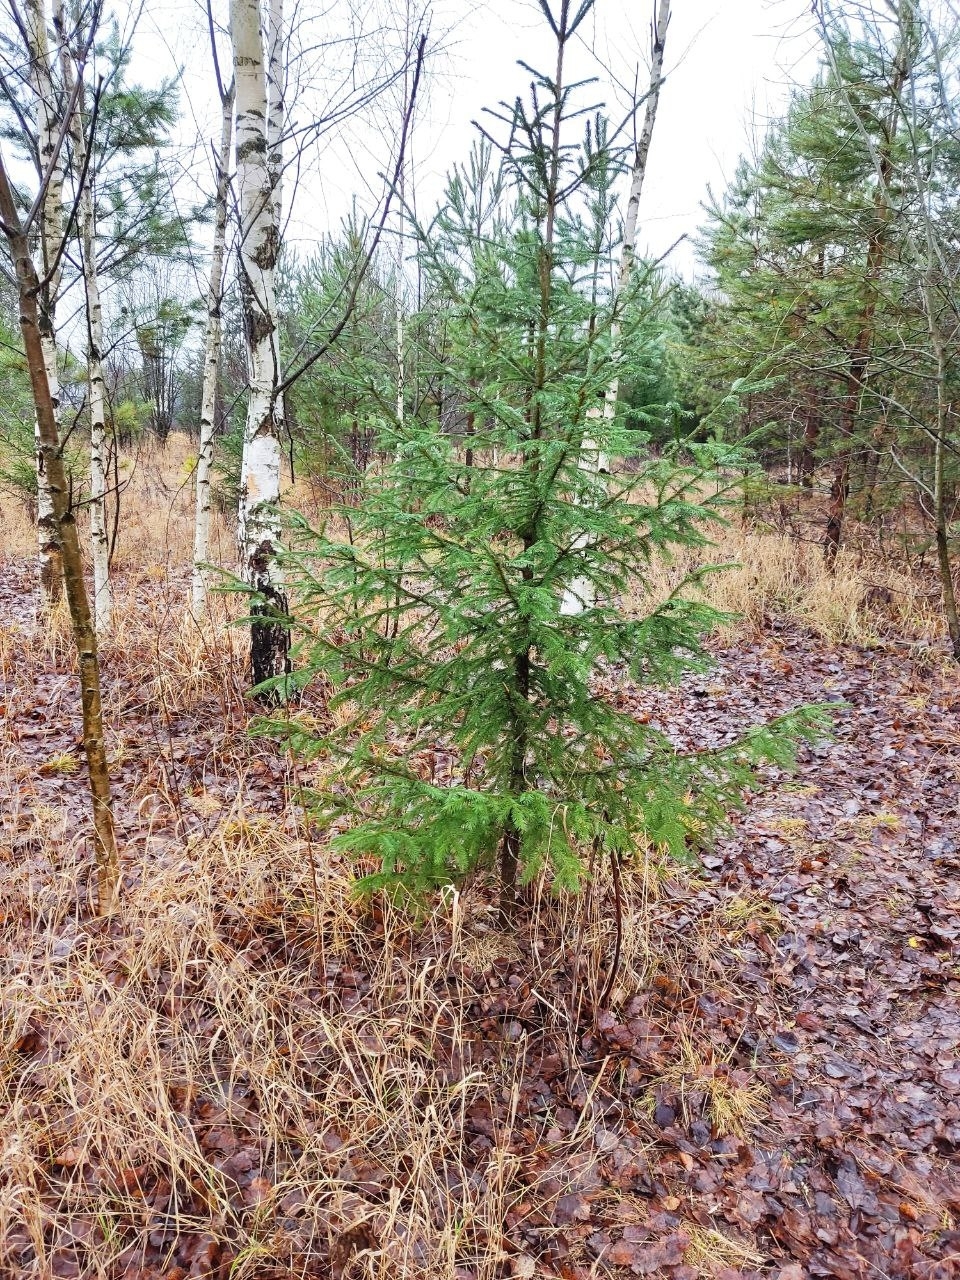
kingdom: Plantae
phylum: Tracheophyta
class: Pinopsida
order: Pinales
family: Pinaceae
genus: Picea
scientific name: Picea
